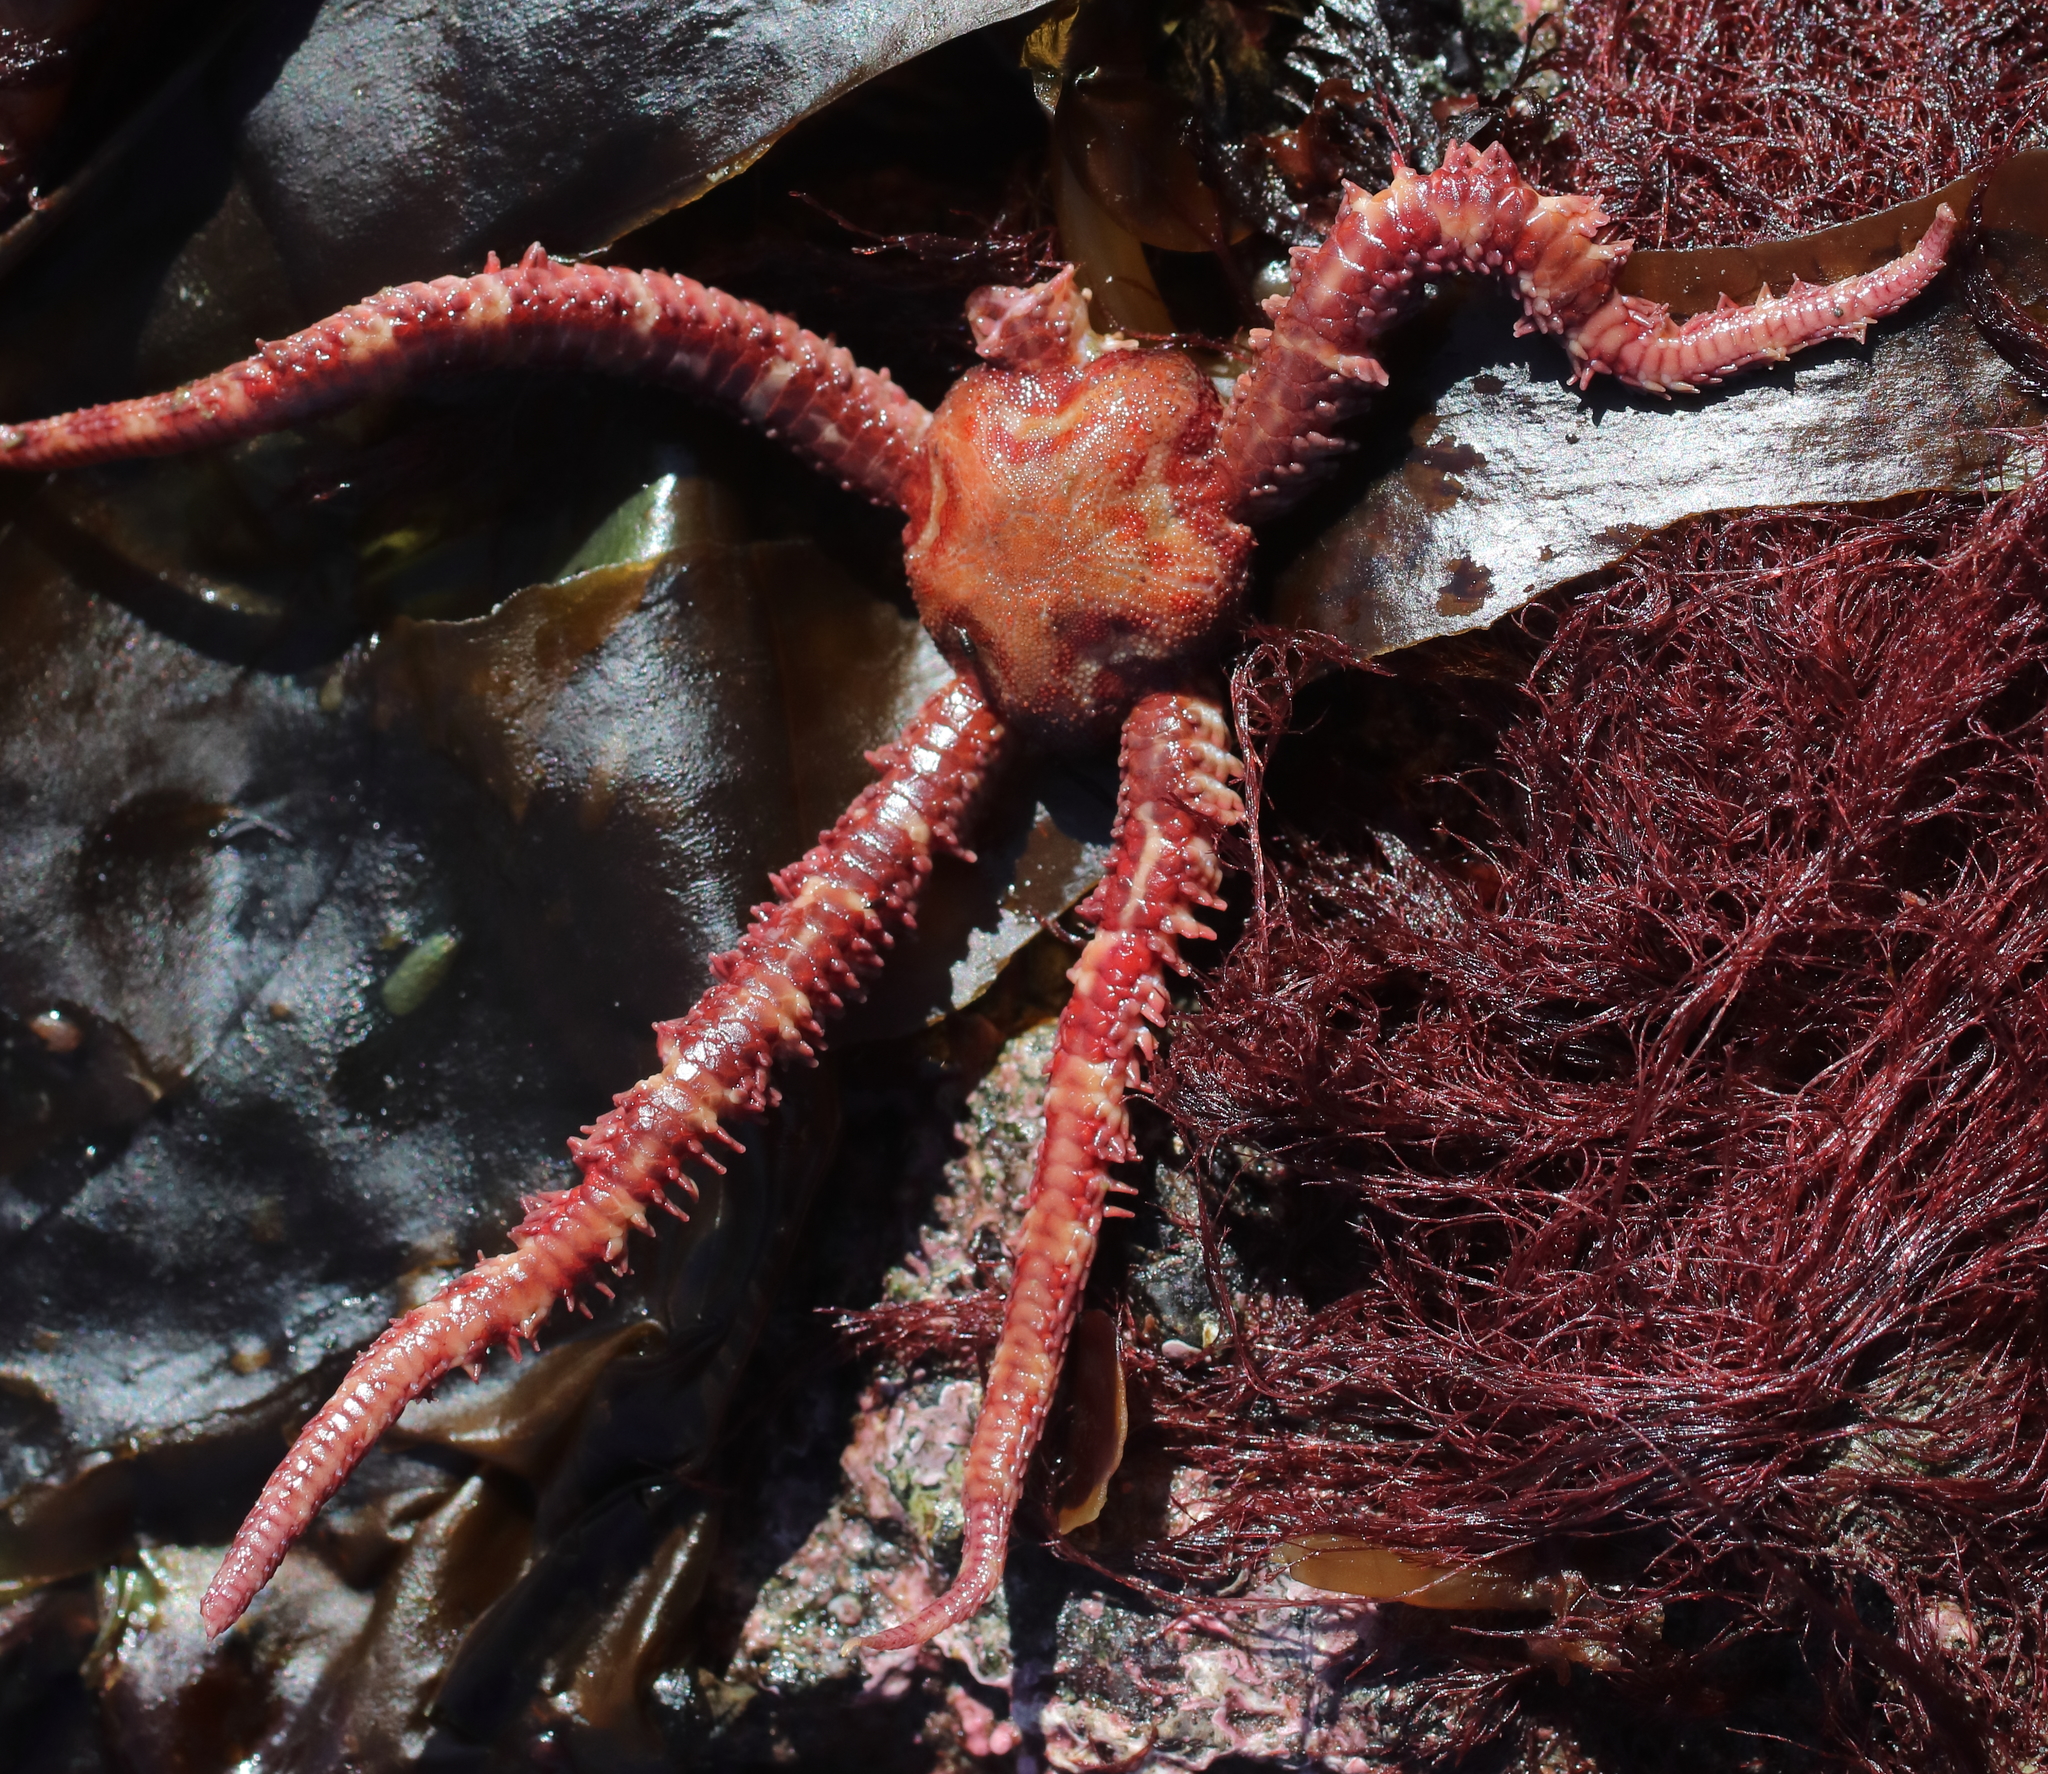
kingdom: Animalia
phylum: Echinodermata
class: Ophiuroidea
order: Amphilepidida
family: Ophiopholidae
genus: Ophiopholis
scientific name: Ophiopholis kennerlyi
